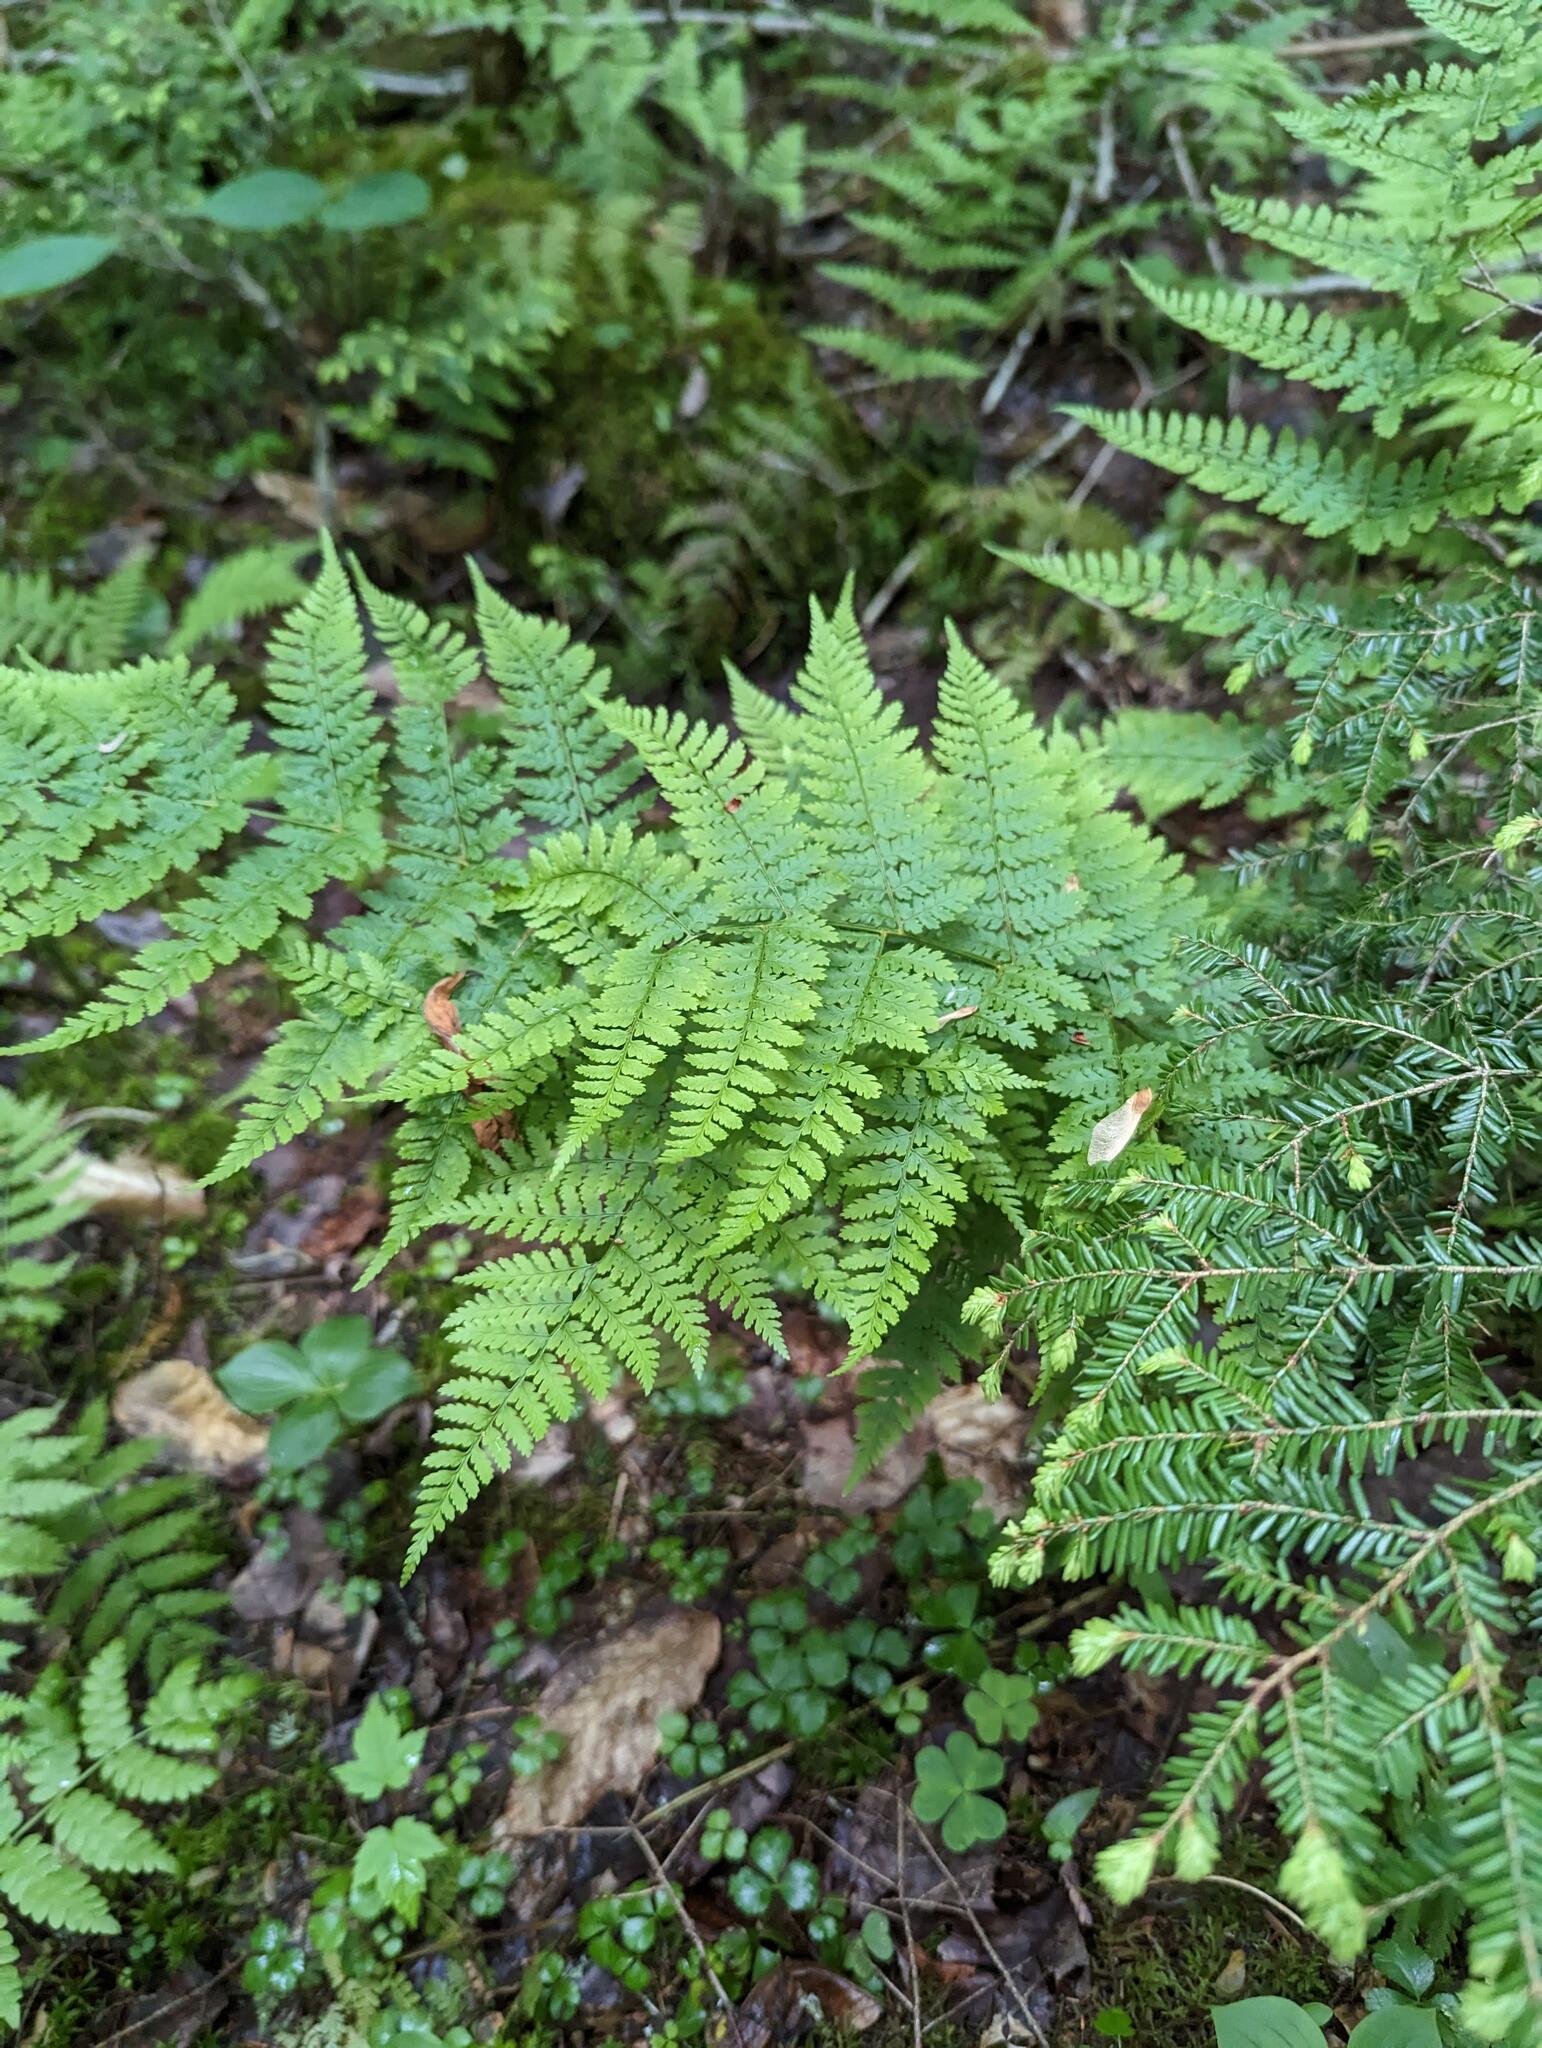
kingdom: Plantae
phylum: Tracheophyta
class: Polypodiopsida
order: Polypodiales
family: Dryopteridaceae
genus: Dryopteris
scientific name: Dryopteris intermedia
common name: Evergreen wood fern
